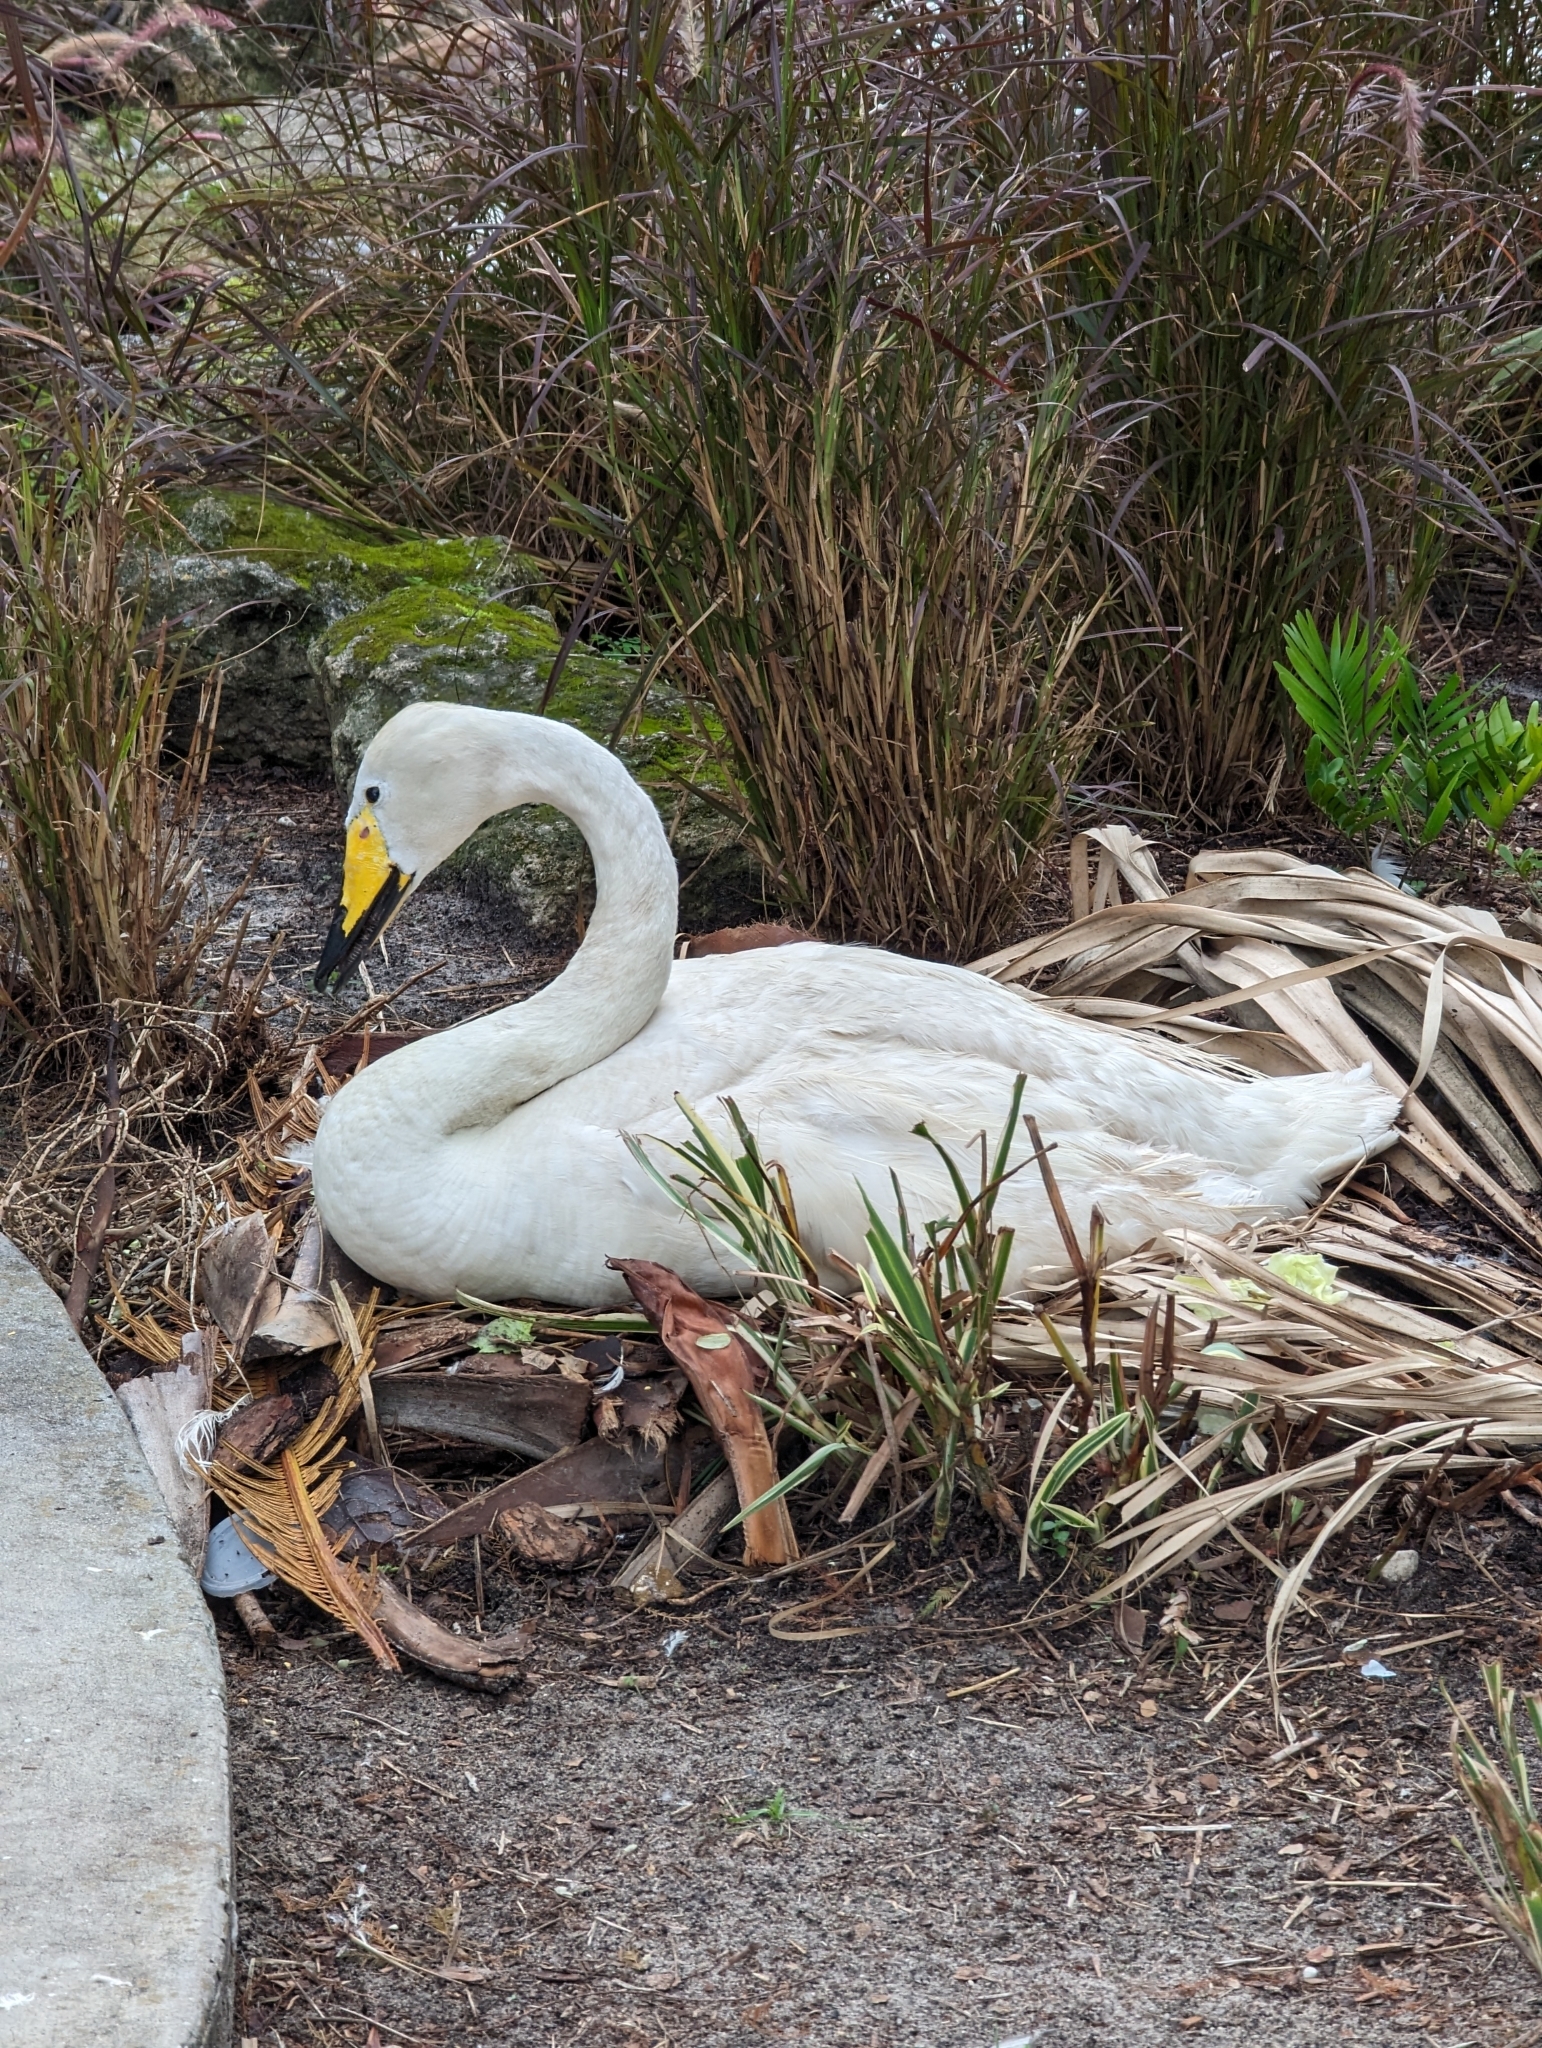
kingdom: Animalia
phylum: Chordata
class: Aves
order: Anseriformes
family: Anatidae
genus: Cygnus
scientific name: Cygnus cygnus
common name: Whooper swan
